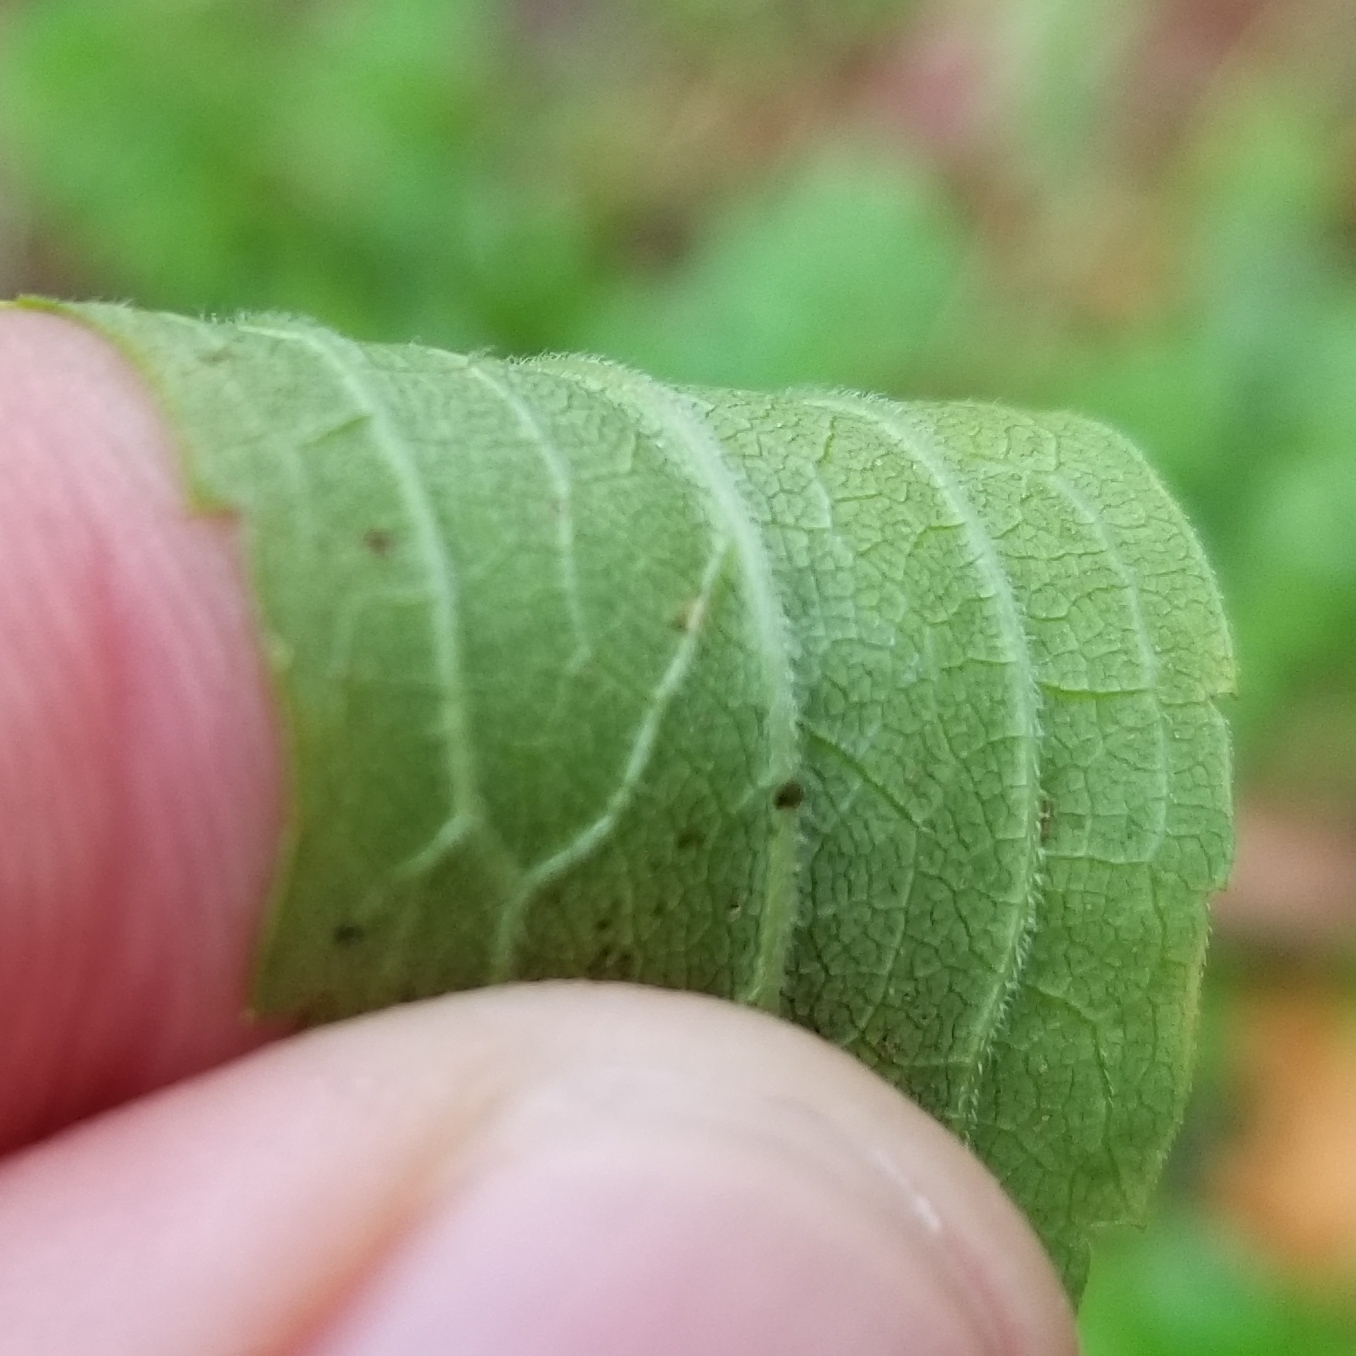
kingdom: Plantae
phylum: Tracheophyta
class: Magnoliopsida
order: Asterales
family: Asteraceae
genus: Solidago
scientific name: Solidago canadensis
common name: Canada goldenrod
